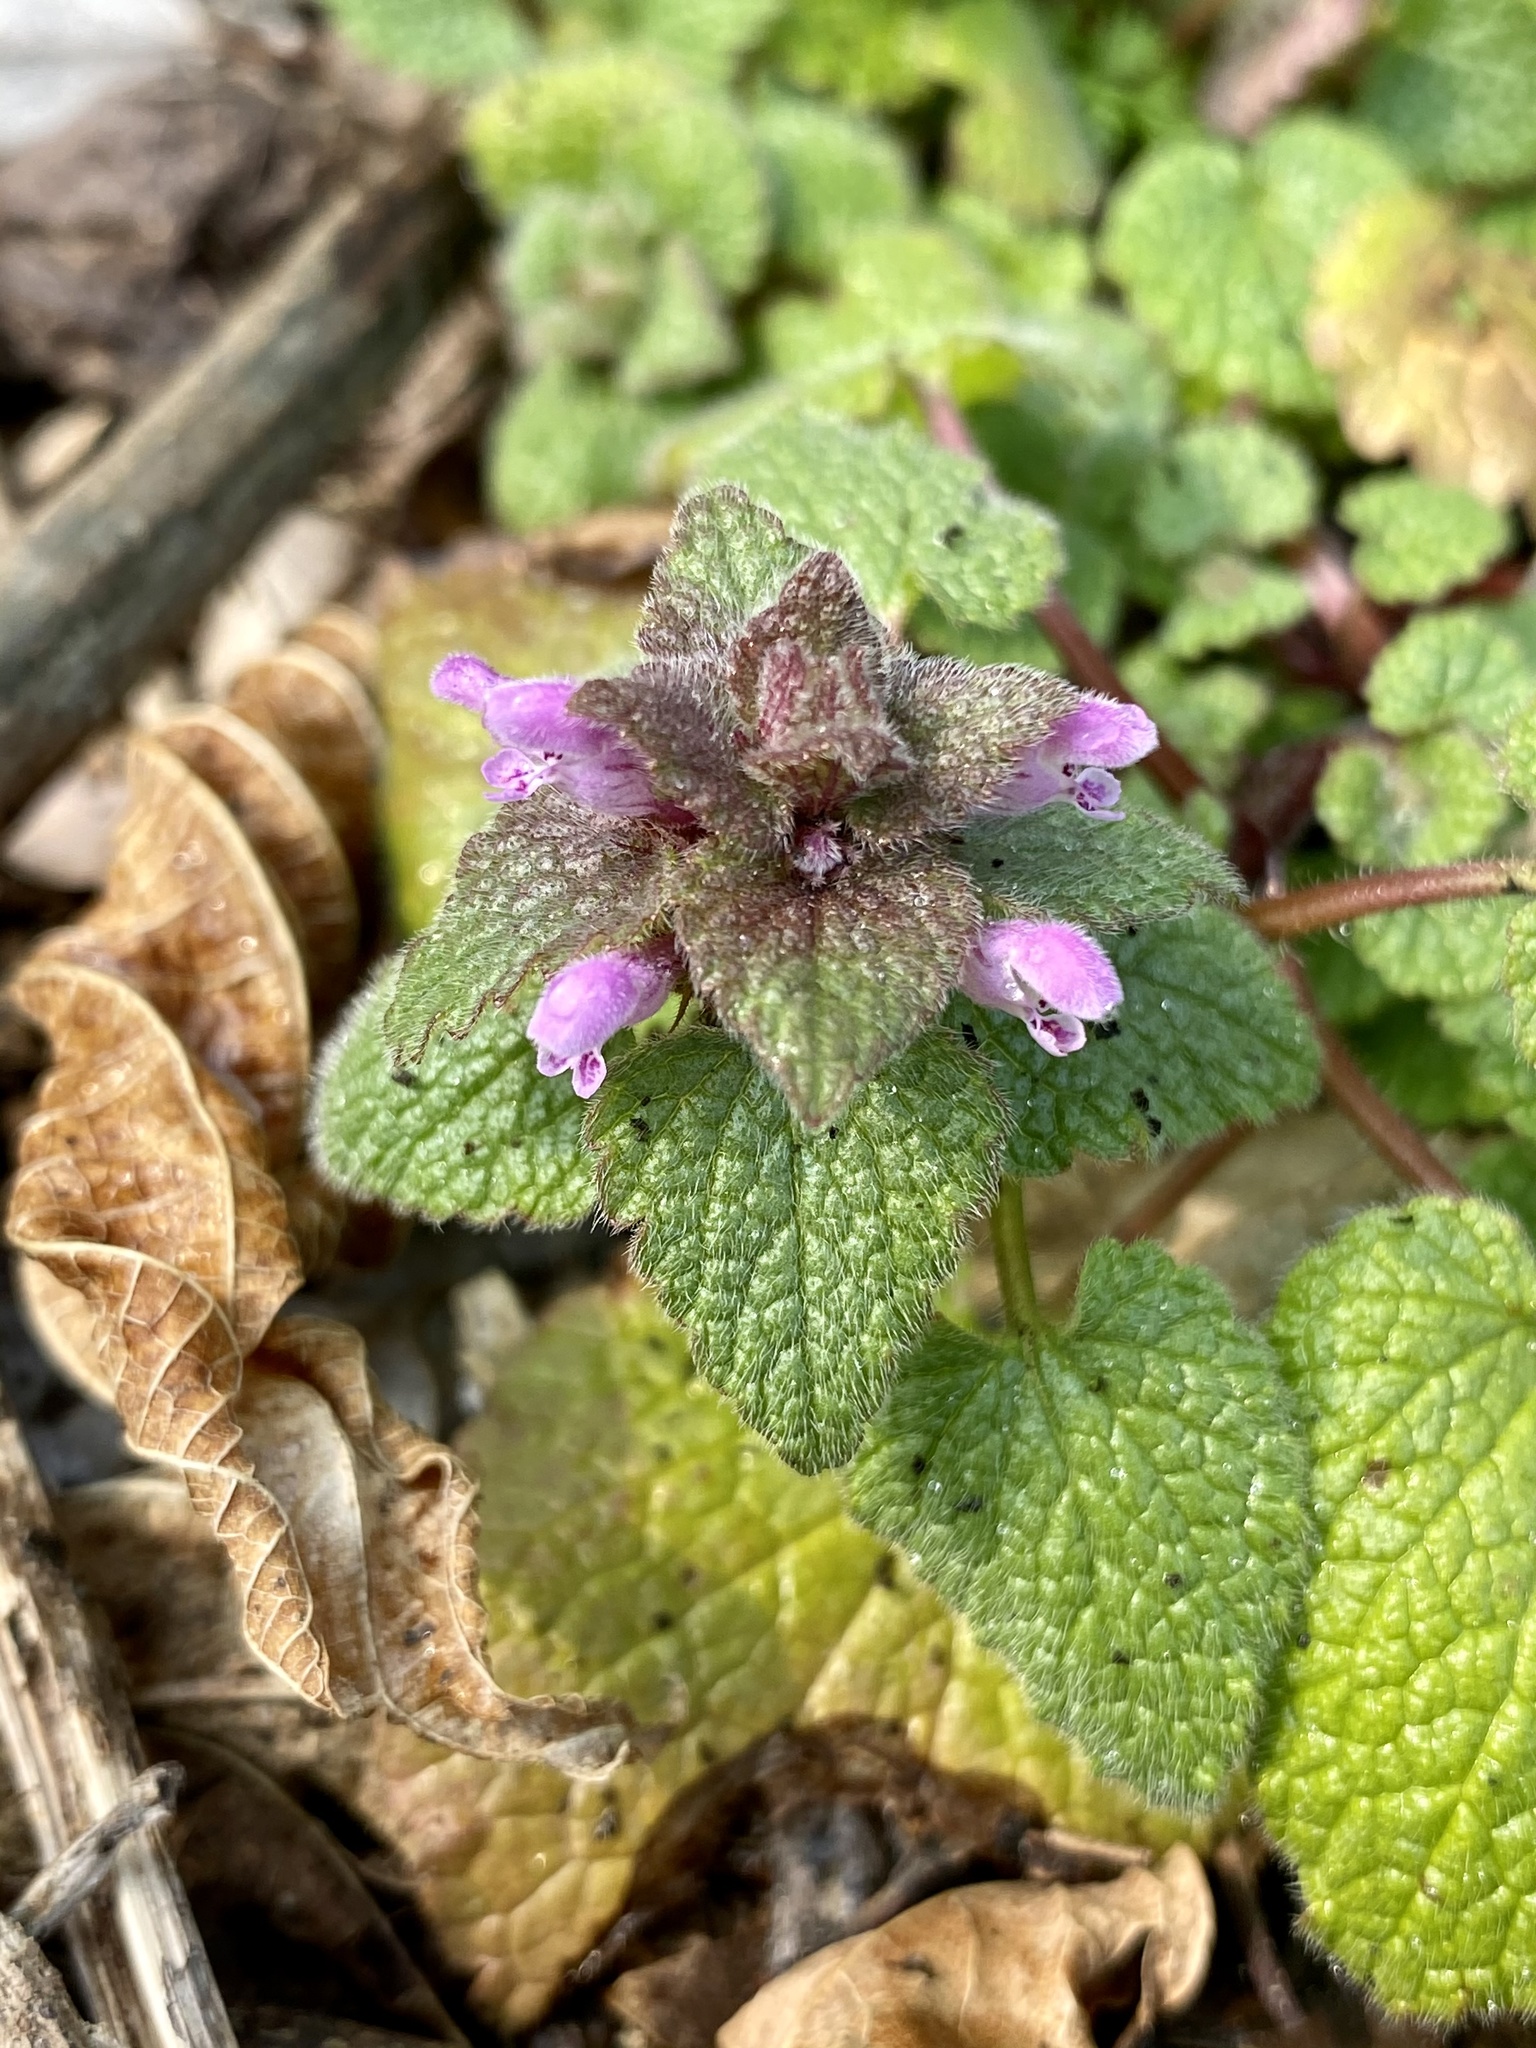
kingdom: Plantae
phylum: Tracheophyta
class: Magnoliopsida
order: Lamiales
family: Lamiaceae
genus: Lamium
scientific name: Lamium purpureum
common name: Red dead-nettle
